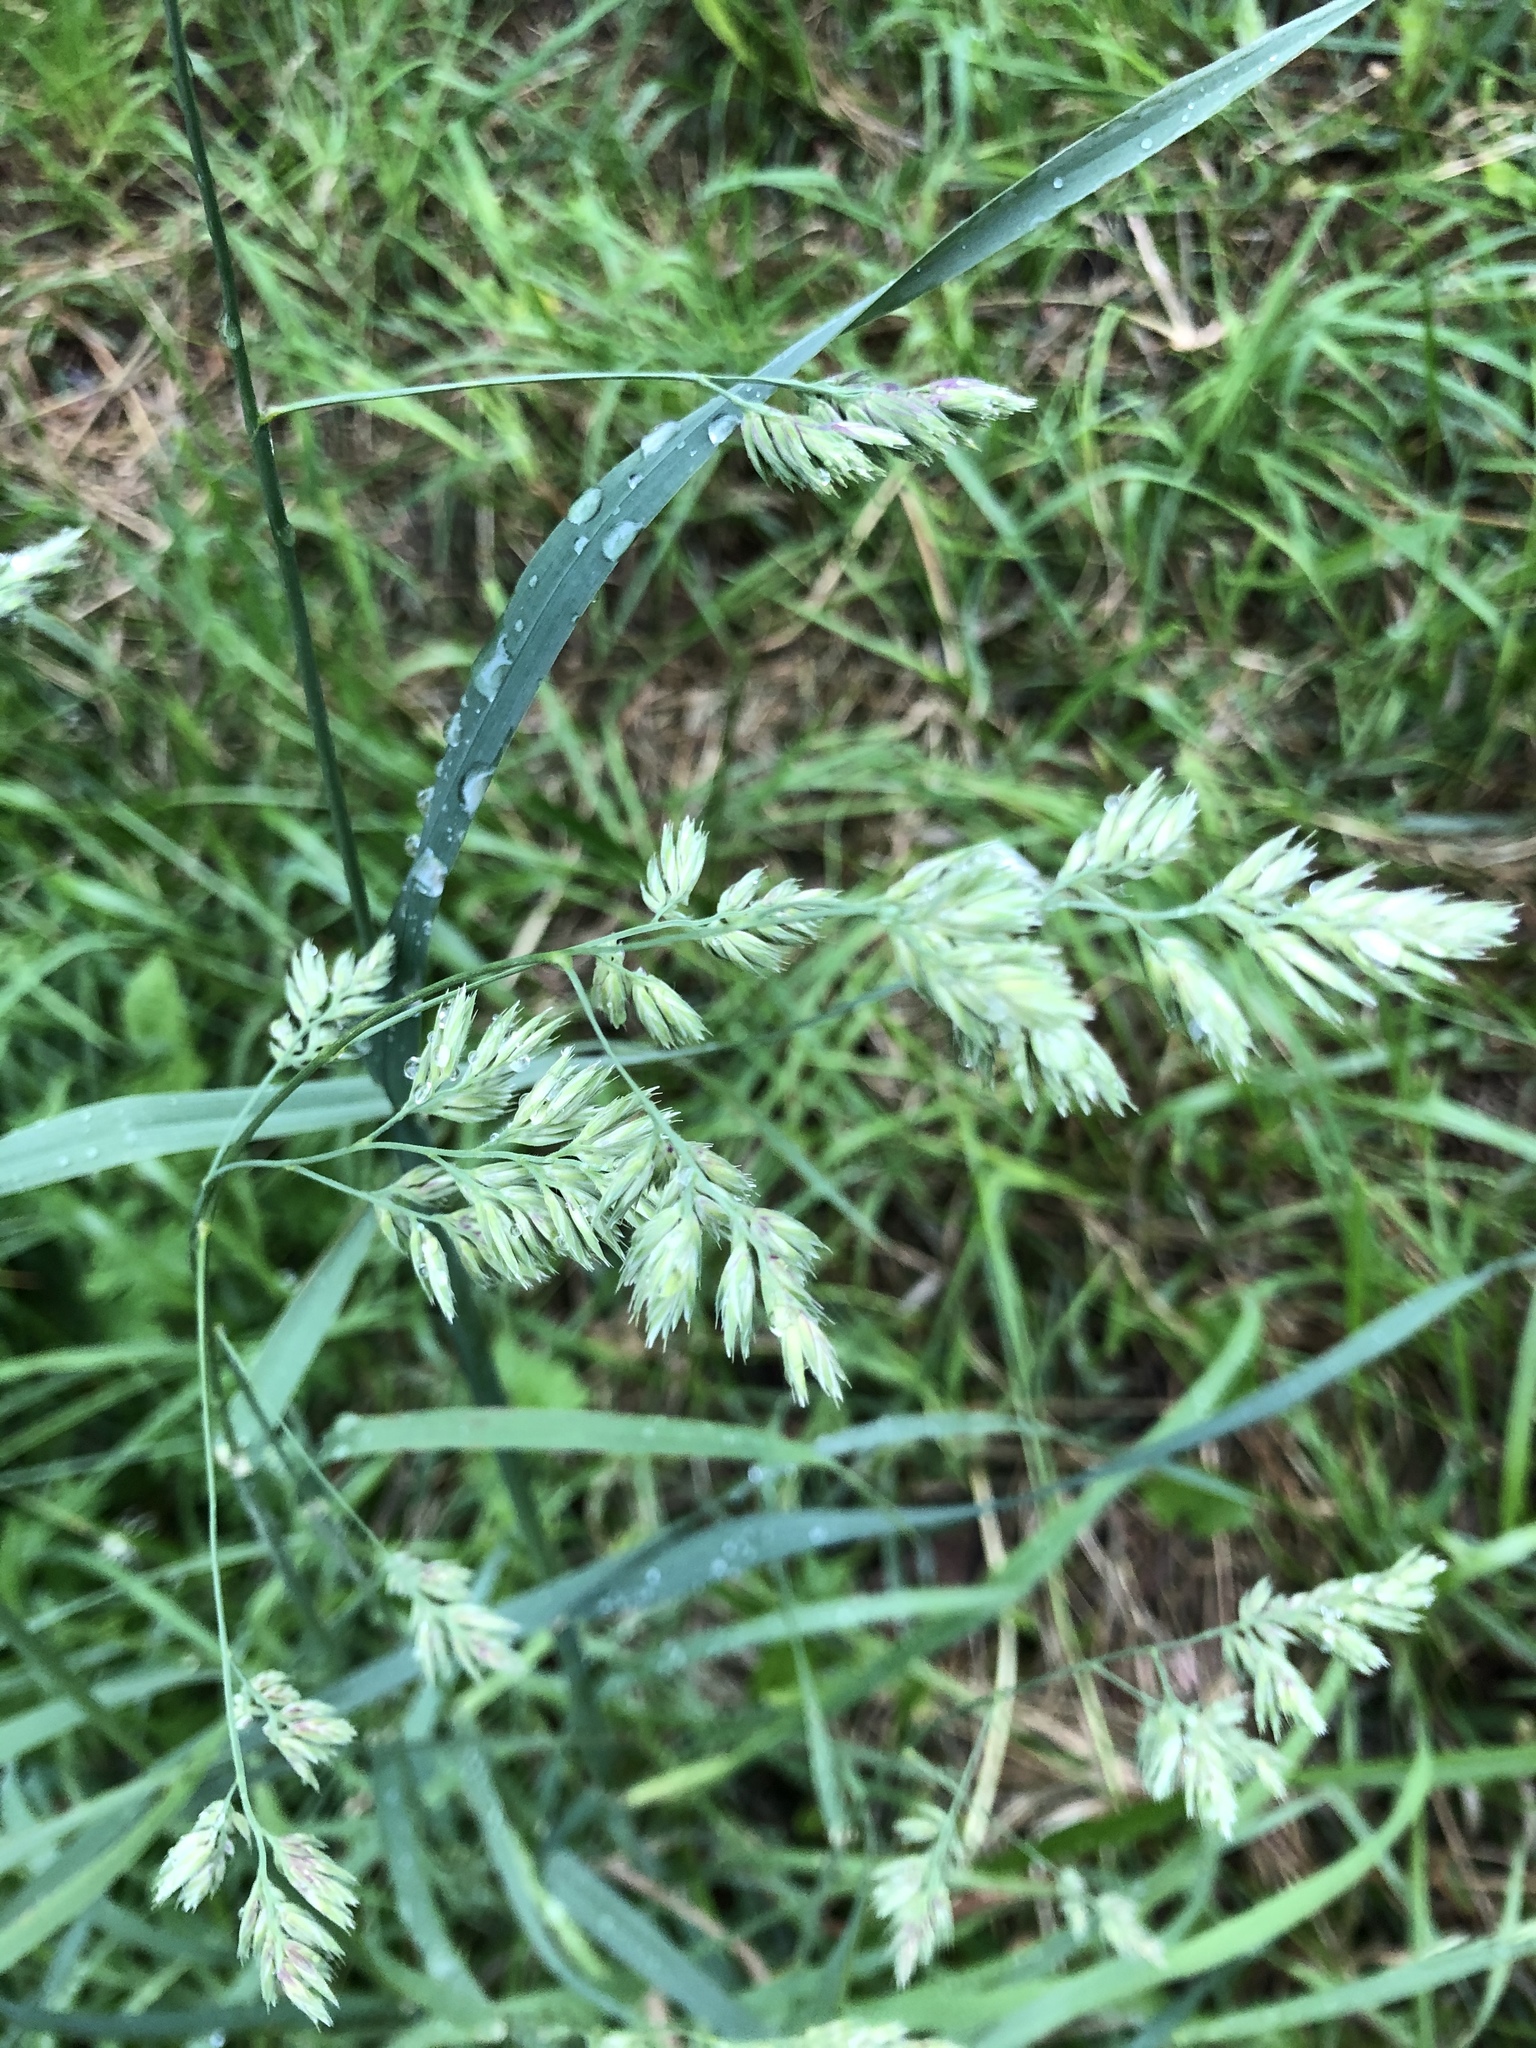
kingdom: Plantae
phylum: Tracheophyta
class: Liliopsida
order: Poales
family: Poaceae
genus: Dactylis
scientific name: Dactylis glomerata
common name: Orchardgrass
